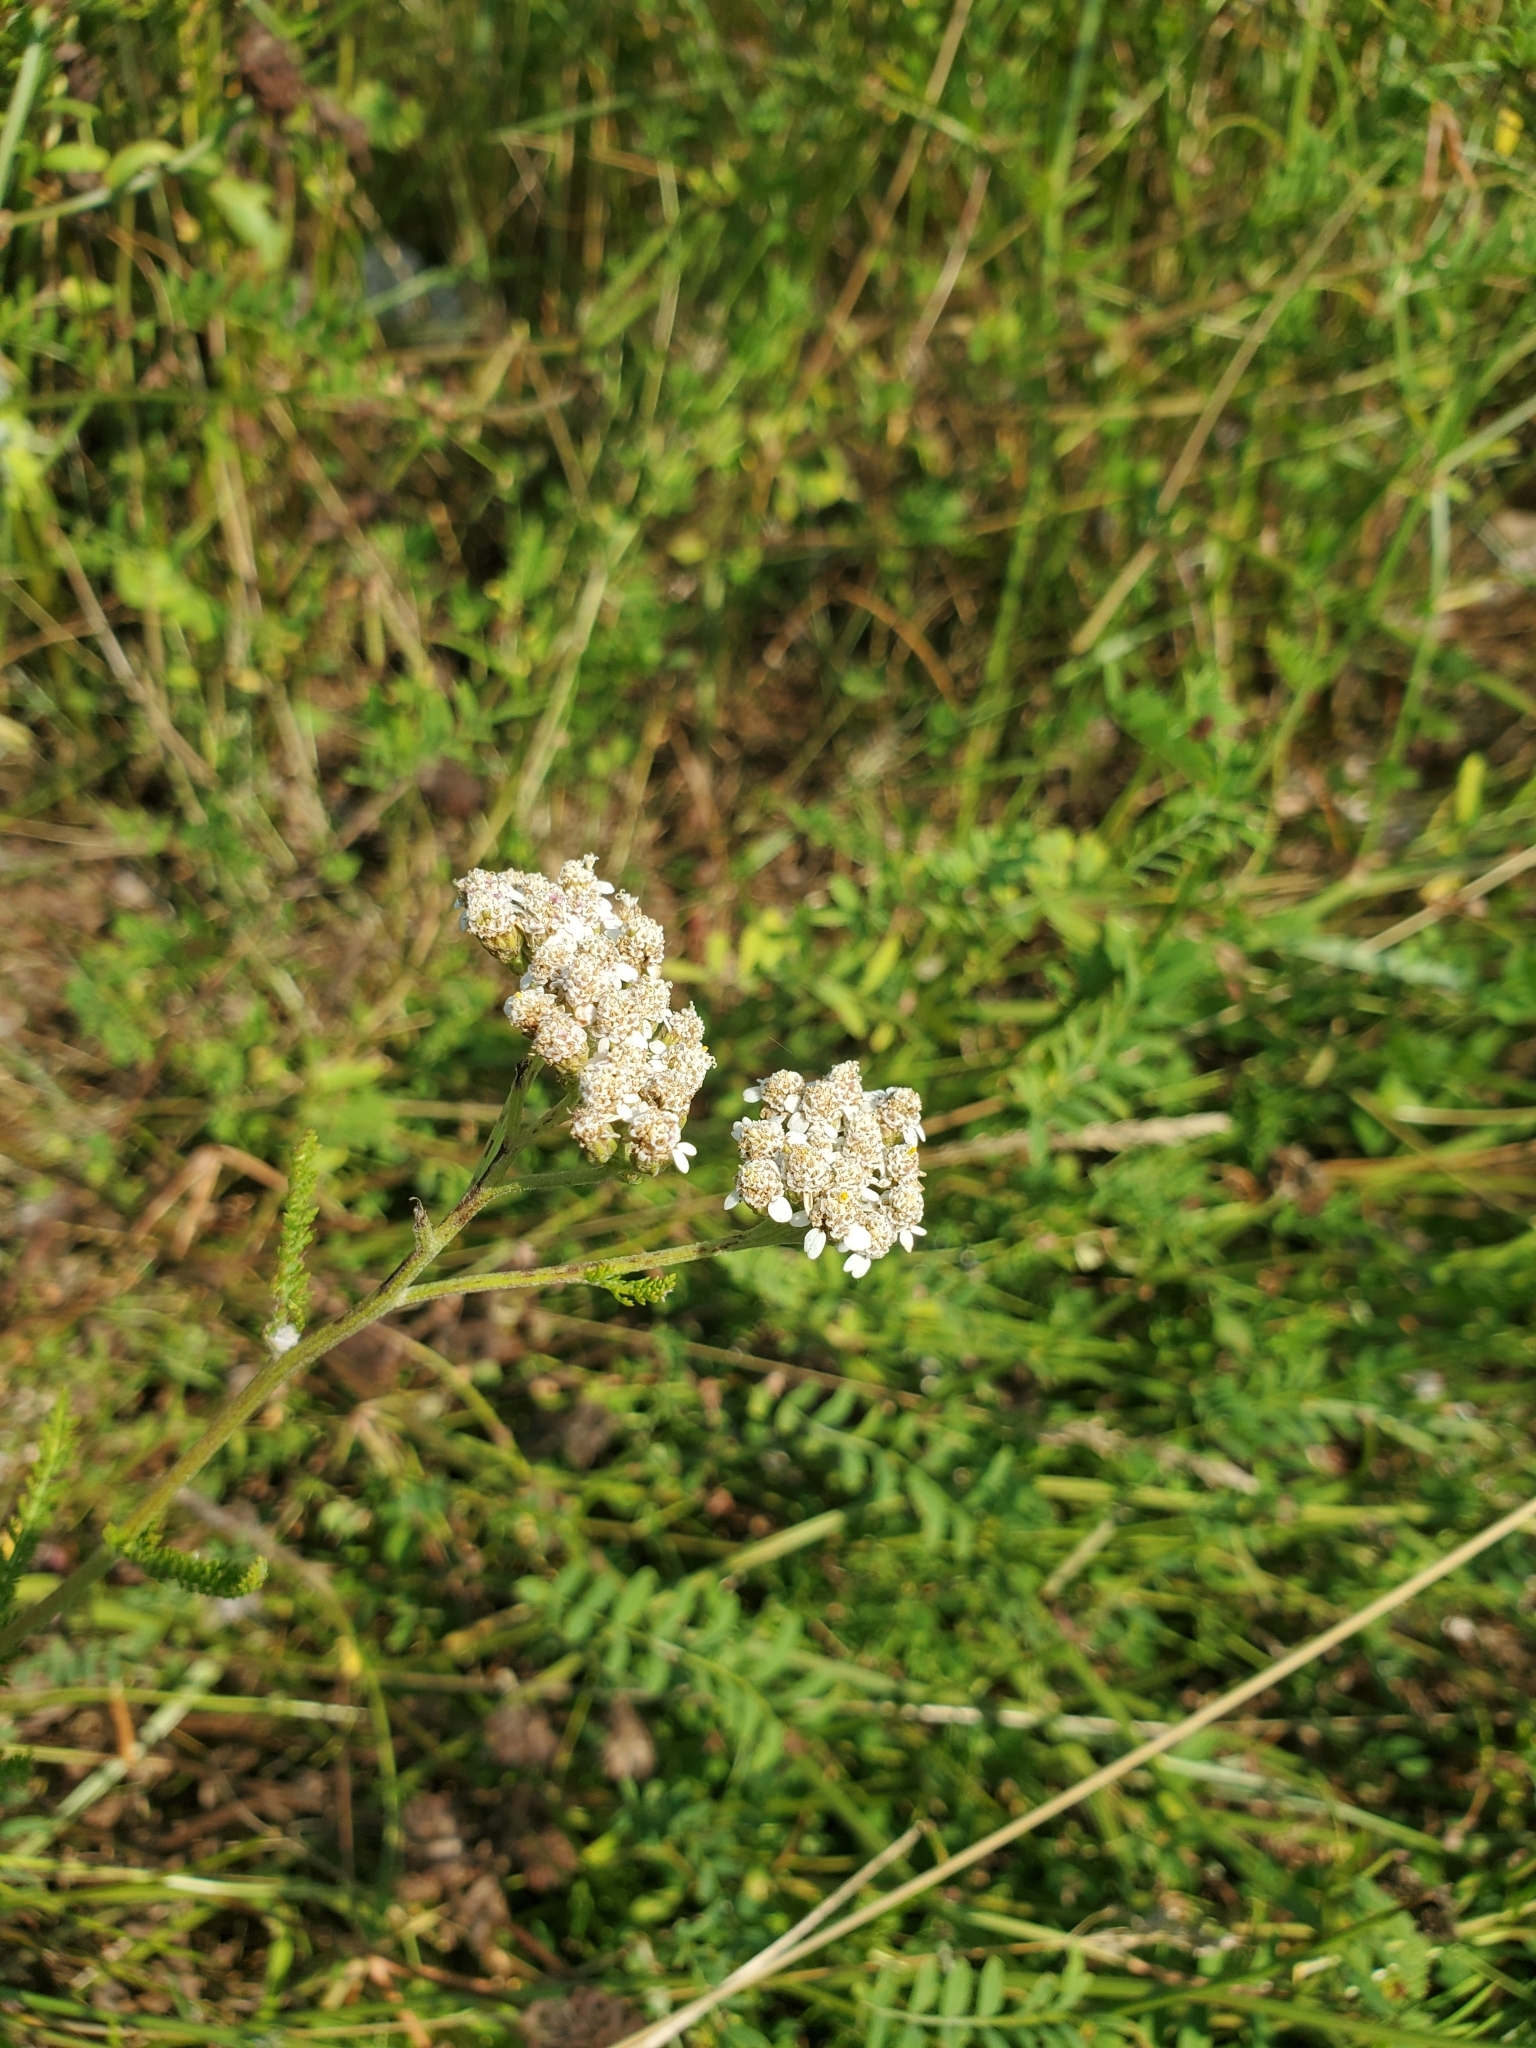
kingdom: Plantae
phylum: Tracheophyta
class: Magnoliopsida
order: Asterales
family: Asteraceae
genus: Achillea
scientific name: Achillea millefolium
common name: Yarrow
